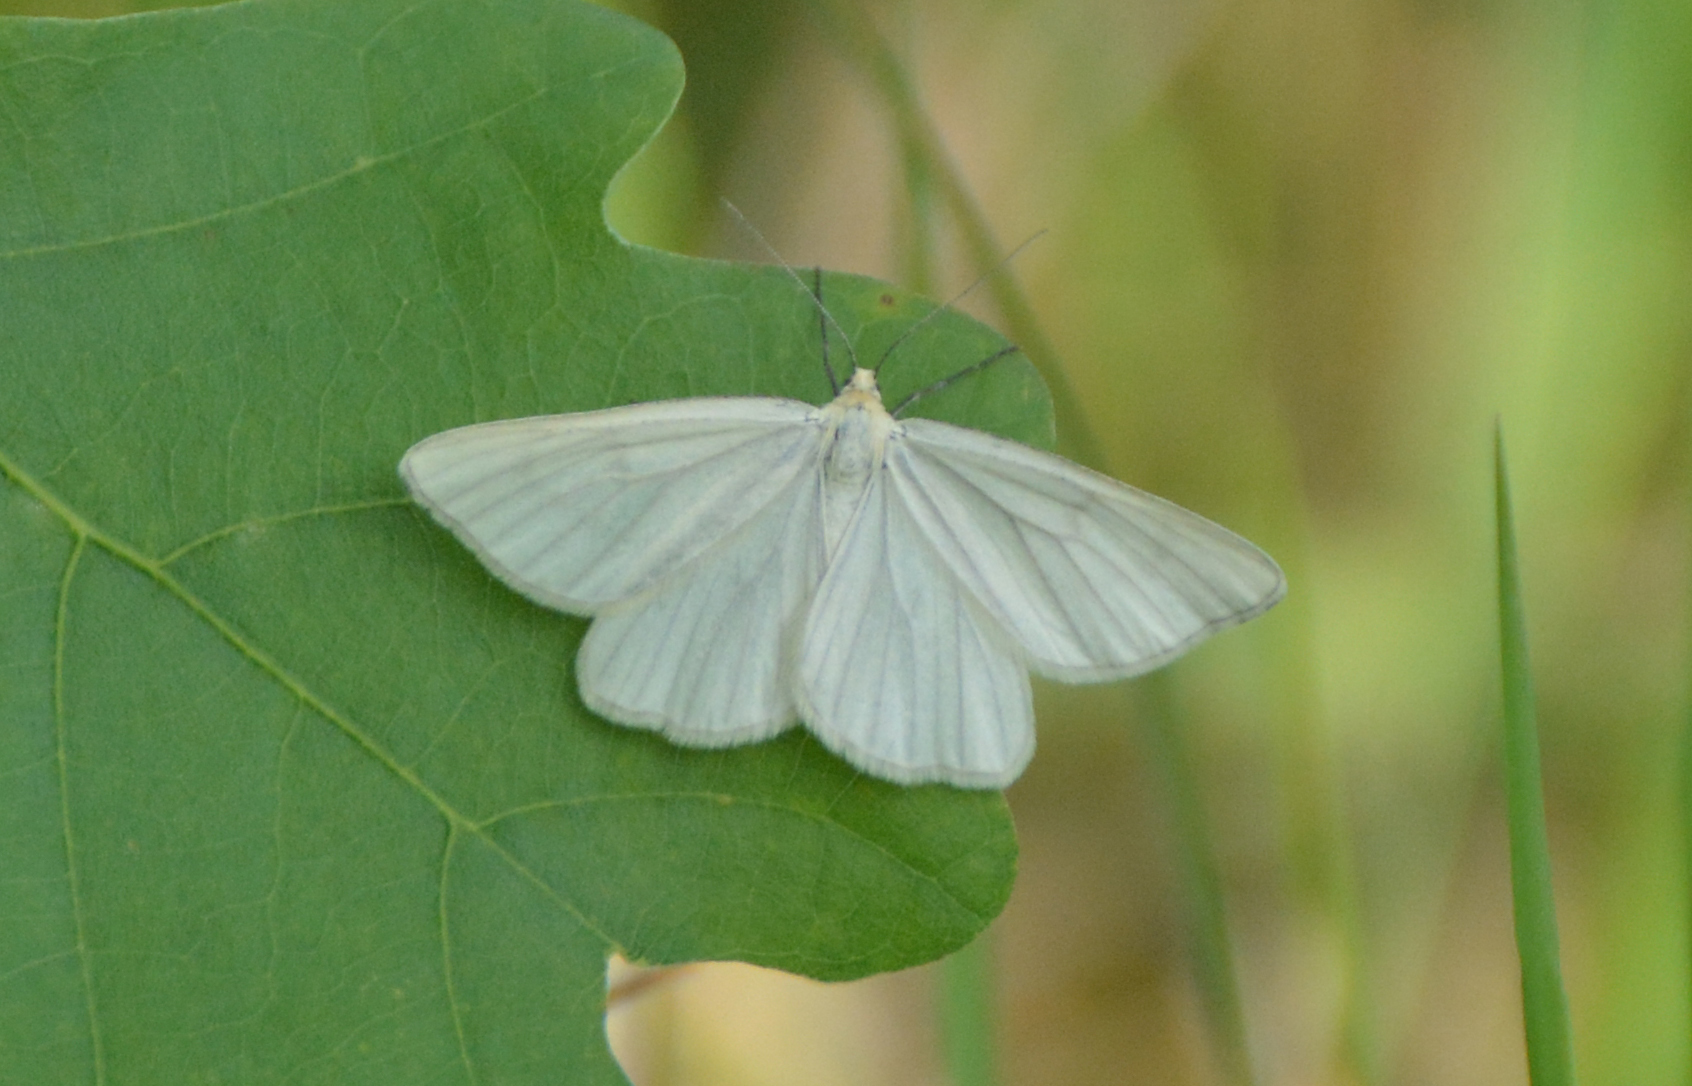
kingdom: Animalia
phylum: Arthropoda
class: Insecta
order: Lepidoptera
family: Geometridae
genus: Siona
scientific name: Siona lineata
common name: Black-veined moth
